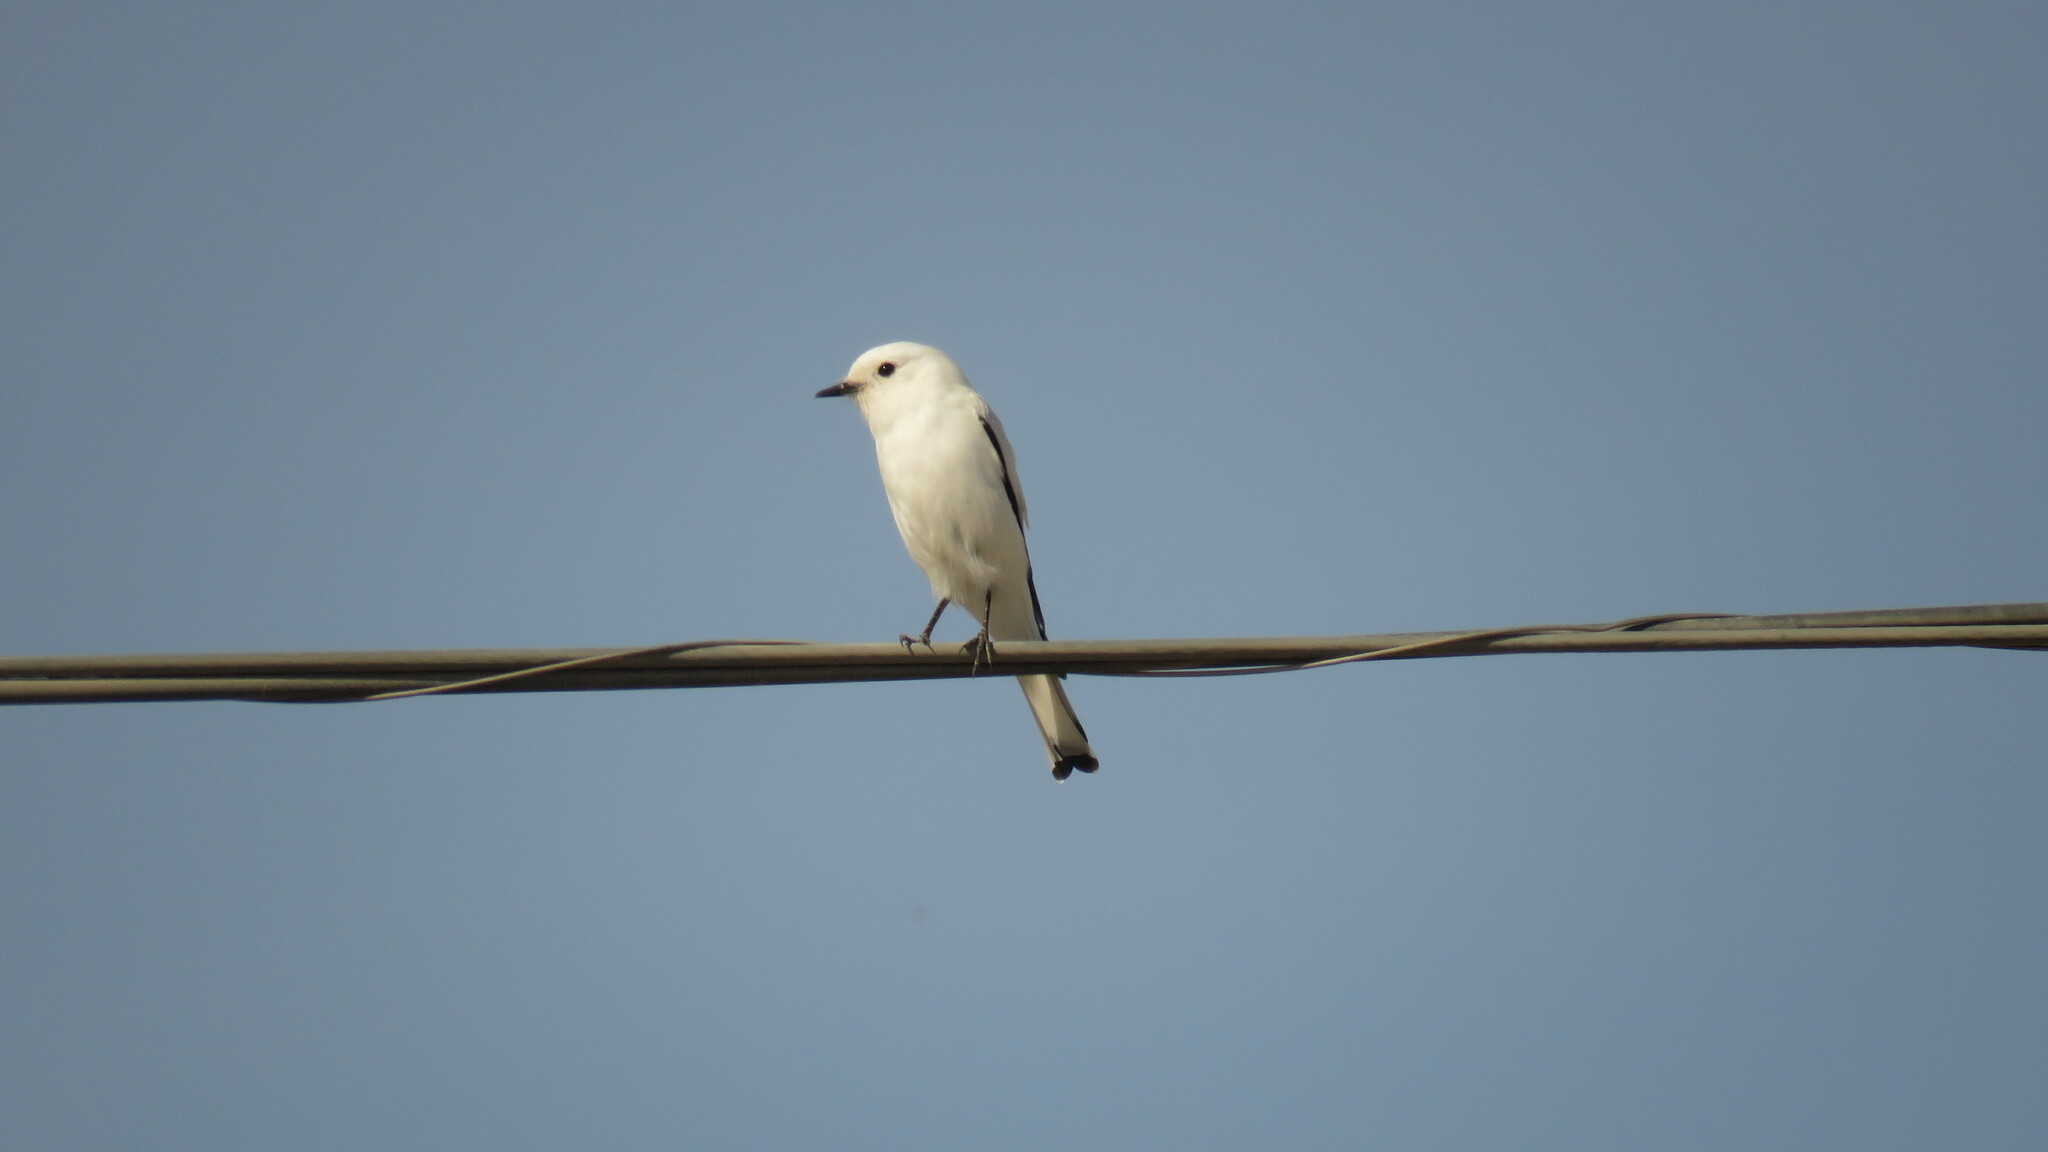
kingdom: Animalia
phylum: Chordata
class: Aves
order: Passeriformes
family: Tyrannidae
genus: Xolmis
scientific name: Xolmis irupero
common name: White monjita
